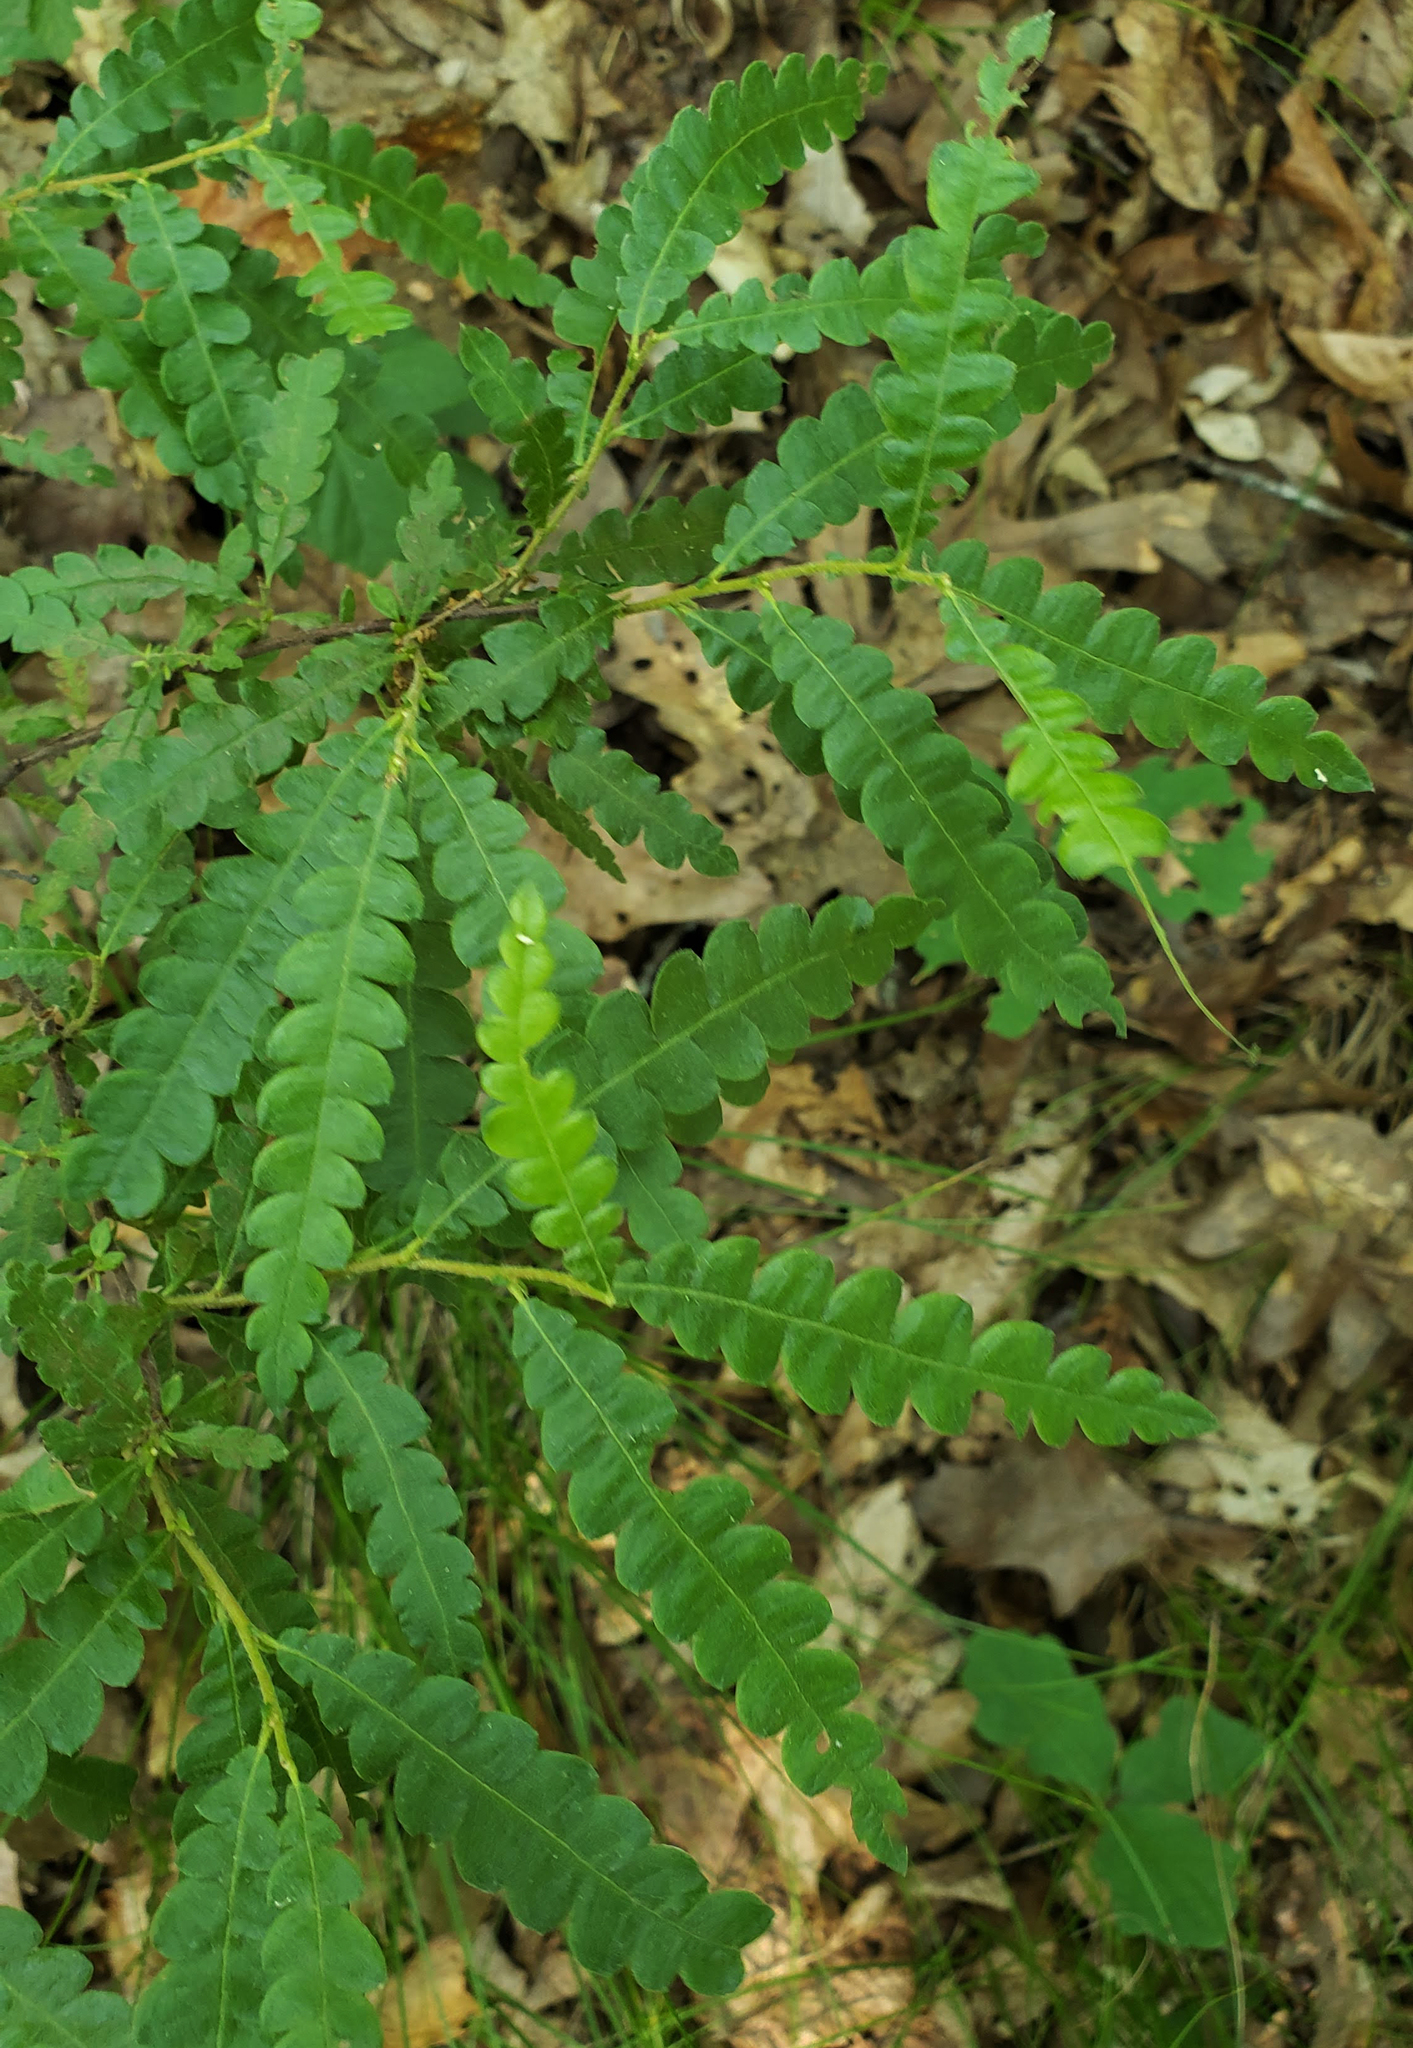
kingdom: Plantae
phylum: Tracheophyta
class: Magnoliopsida
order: Fagales
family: Myricaceae
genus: Comptonia
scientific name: Comptonia peregrina
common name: Sweet-fern
